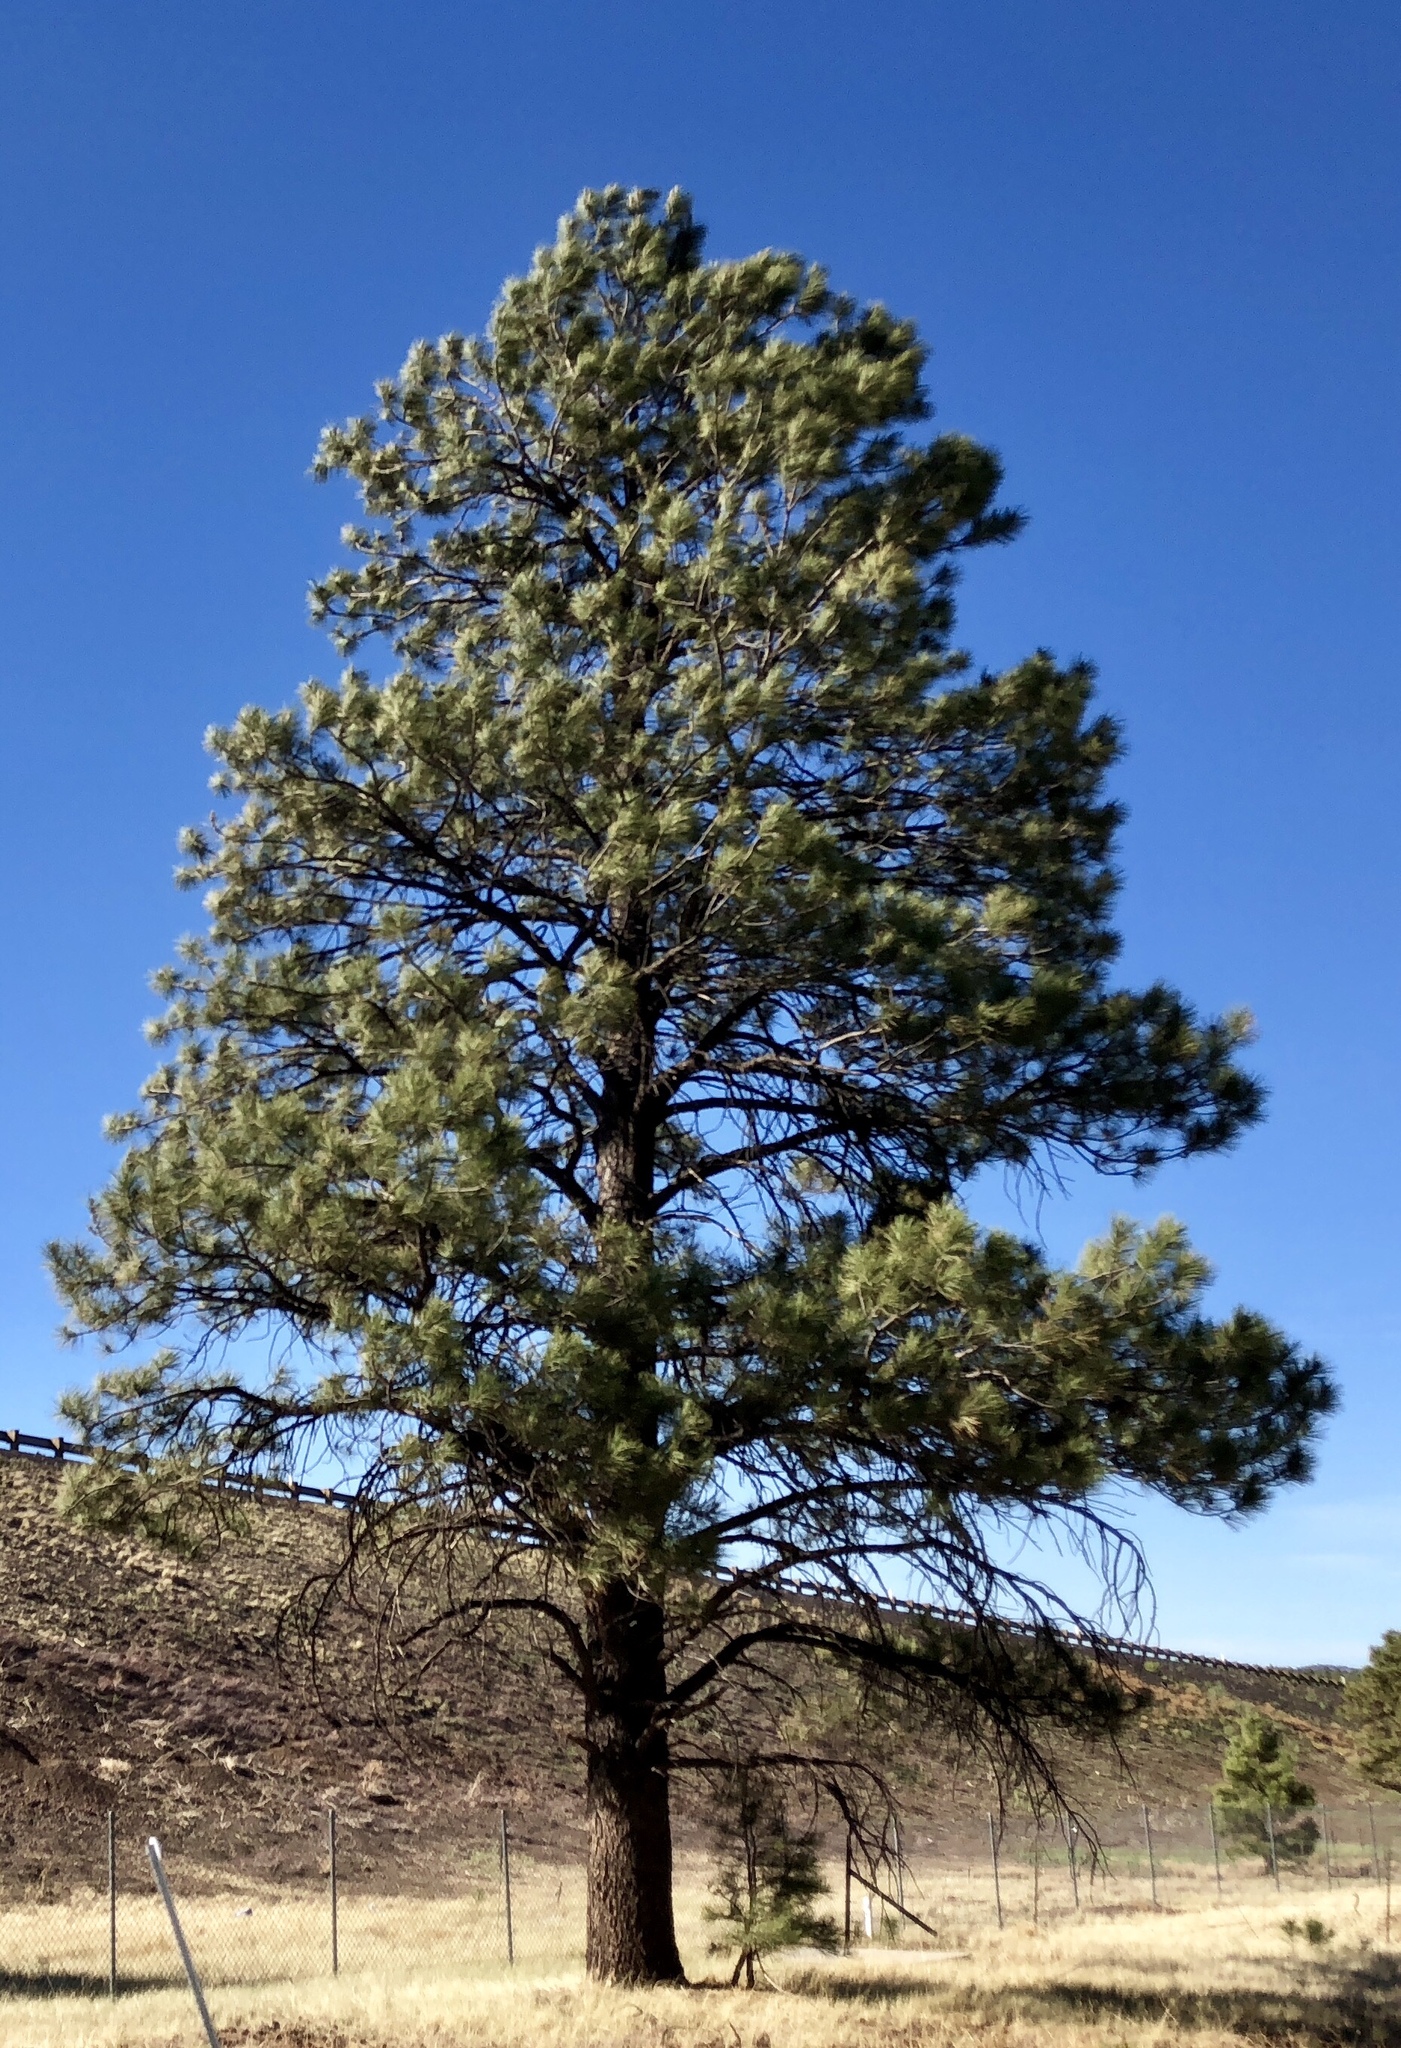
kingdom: Plantae
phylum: Tracheophyta
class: Pinopsida
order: Pinales
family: Pinaceae
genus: Pinus
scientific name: Pinus ponderosa
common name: Western yellow-pine
